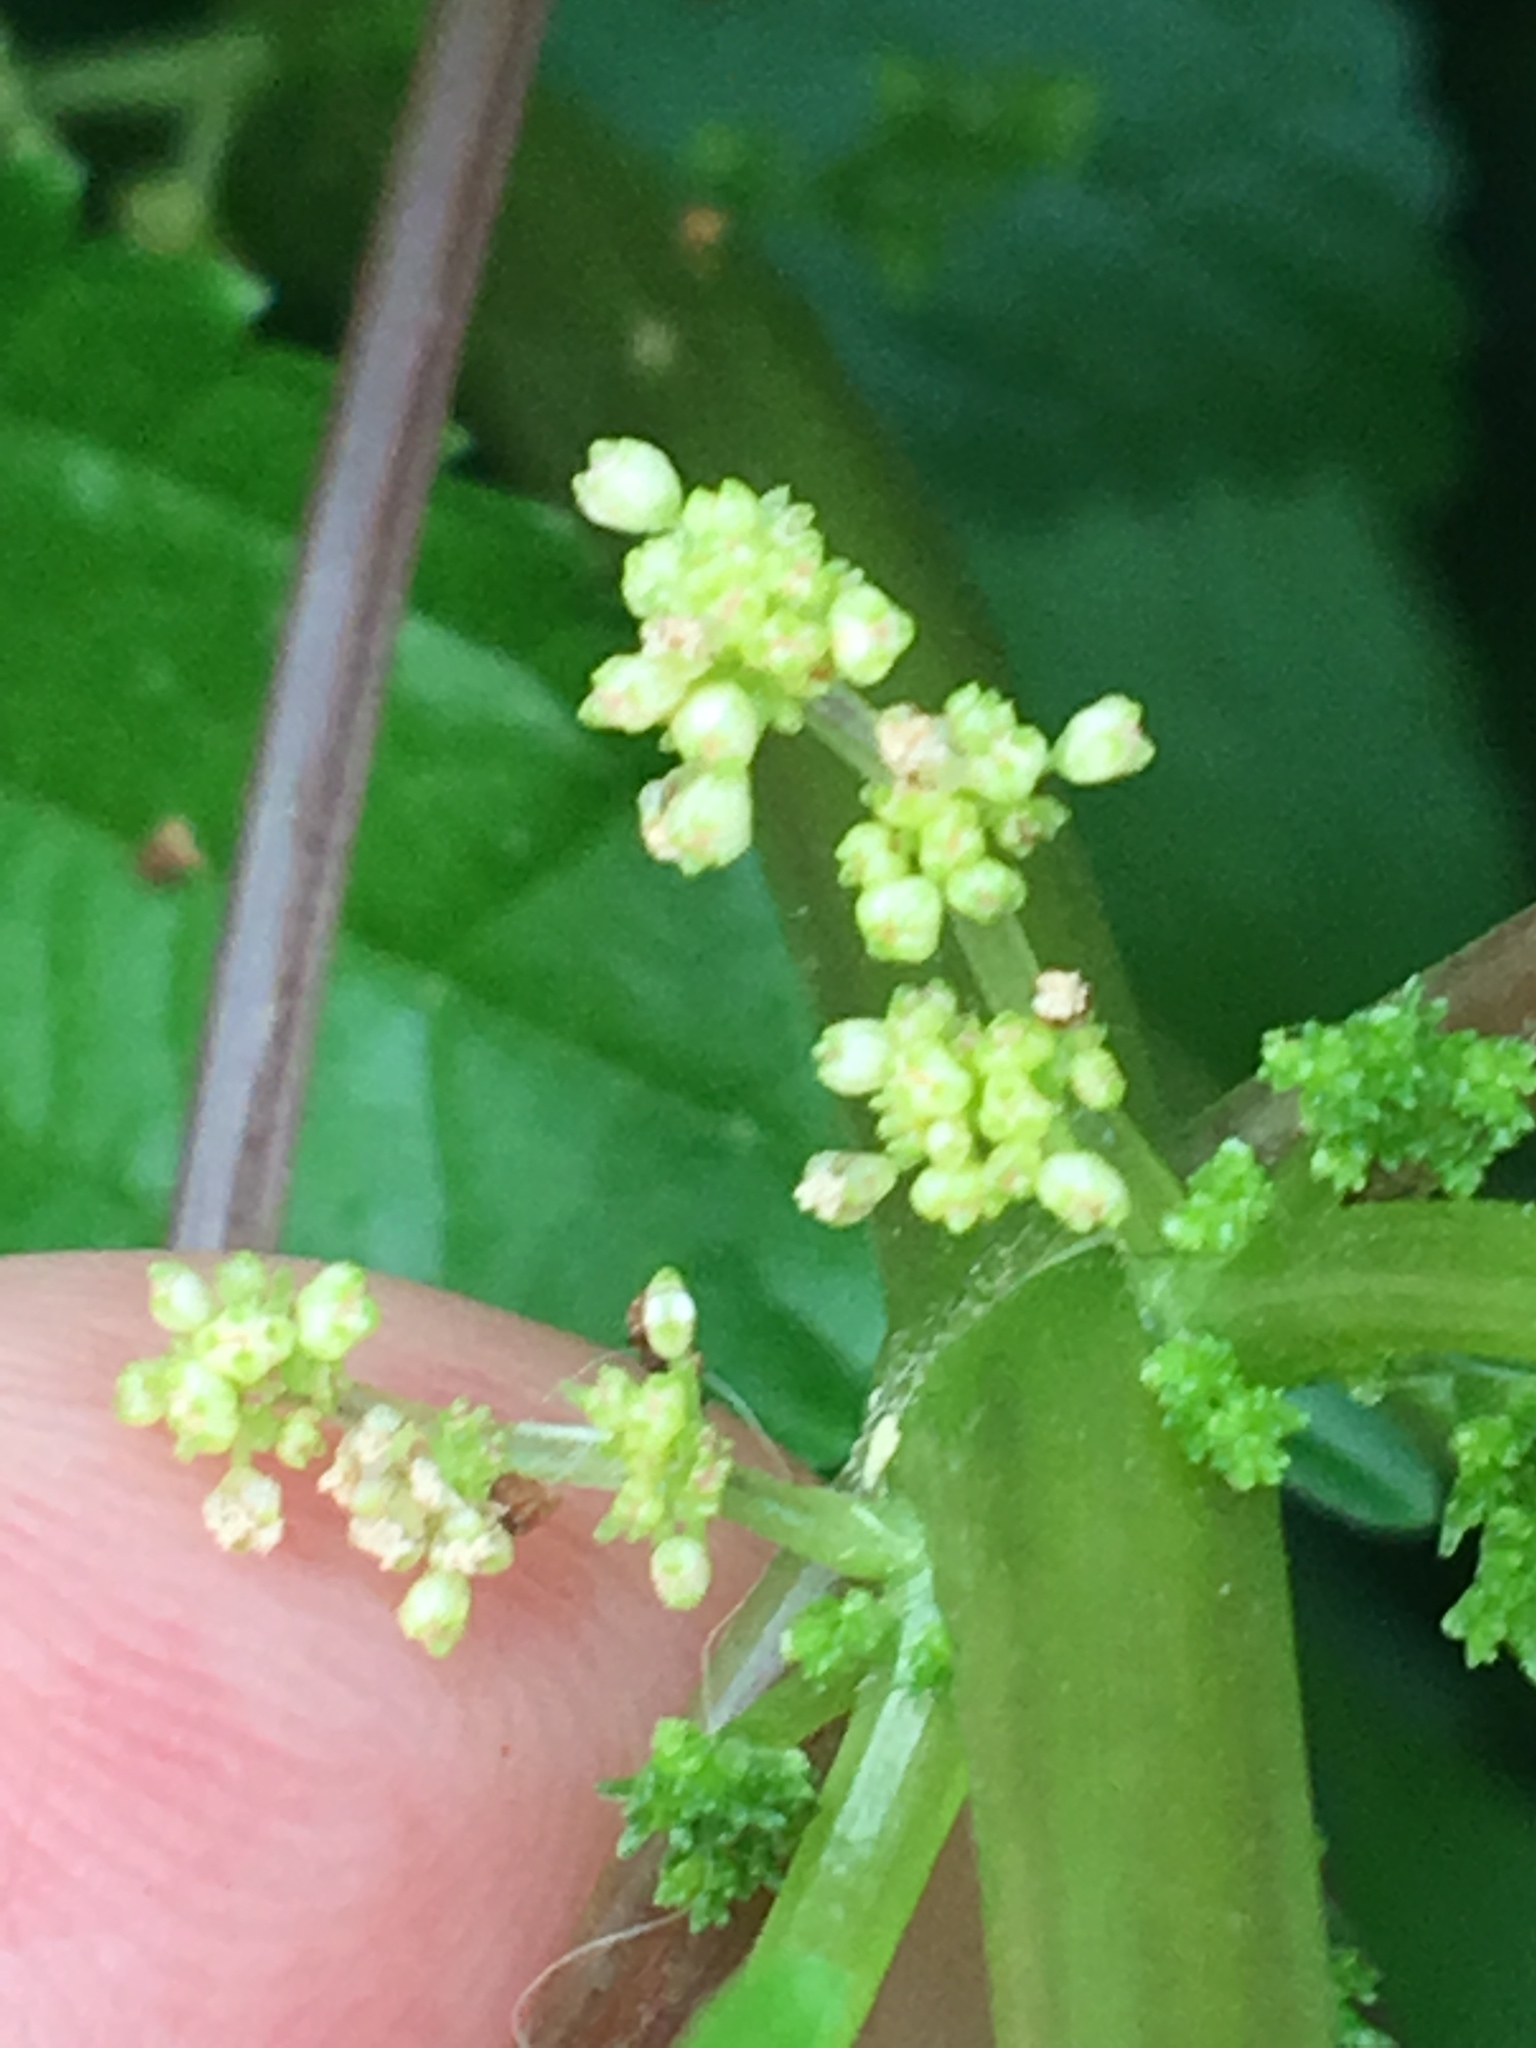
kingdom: Plantae
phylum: Tracheophyta
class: Magnoliopsida
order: Rosales
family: Urticaceae
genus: Pilea
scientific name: Pilea pumila
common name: Clearweed
